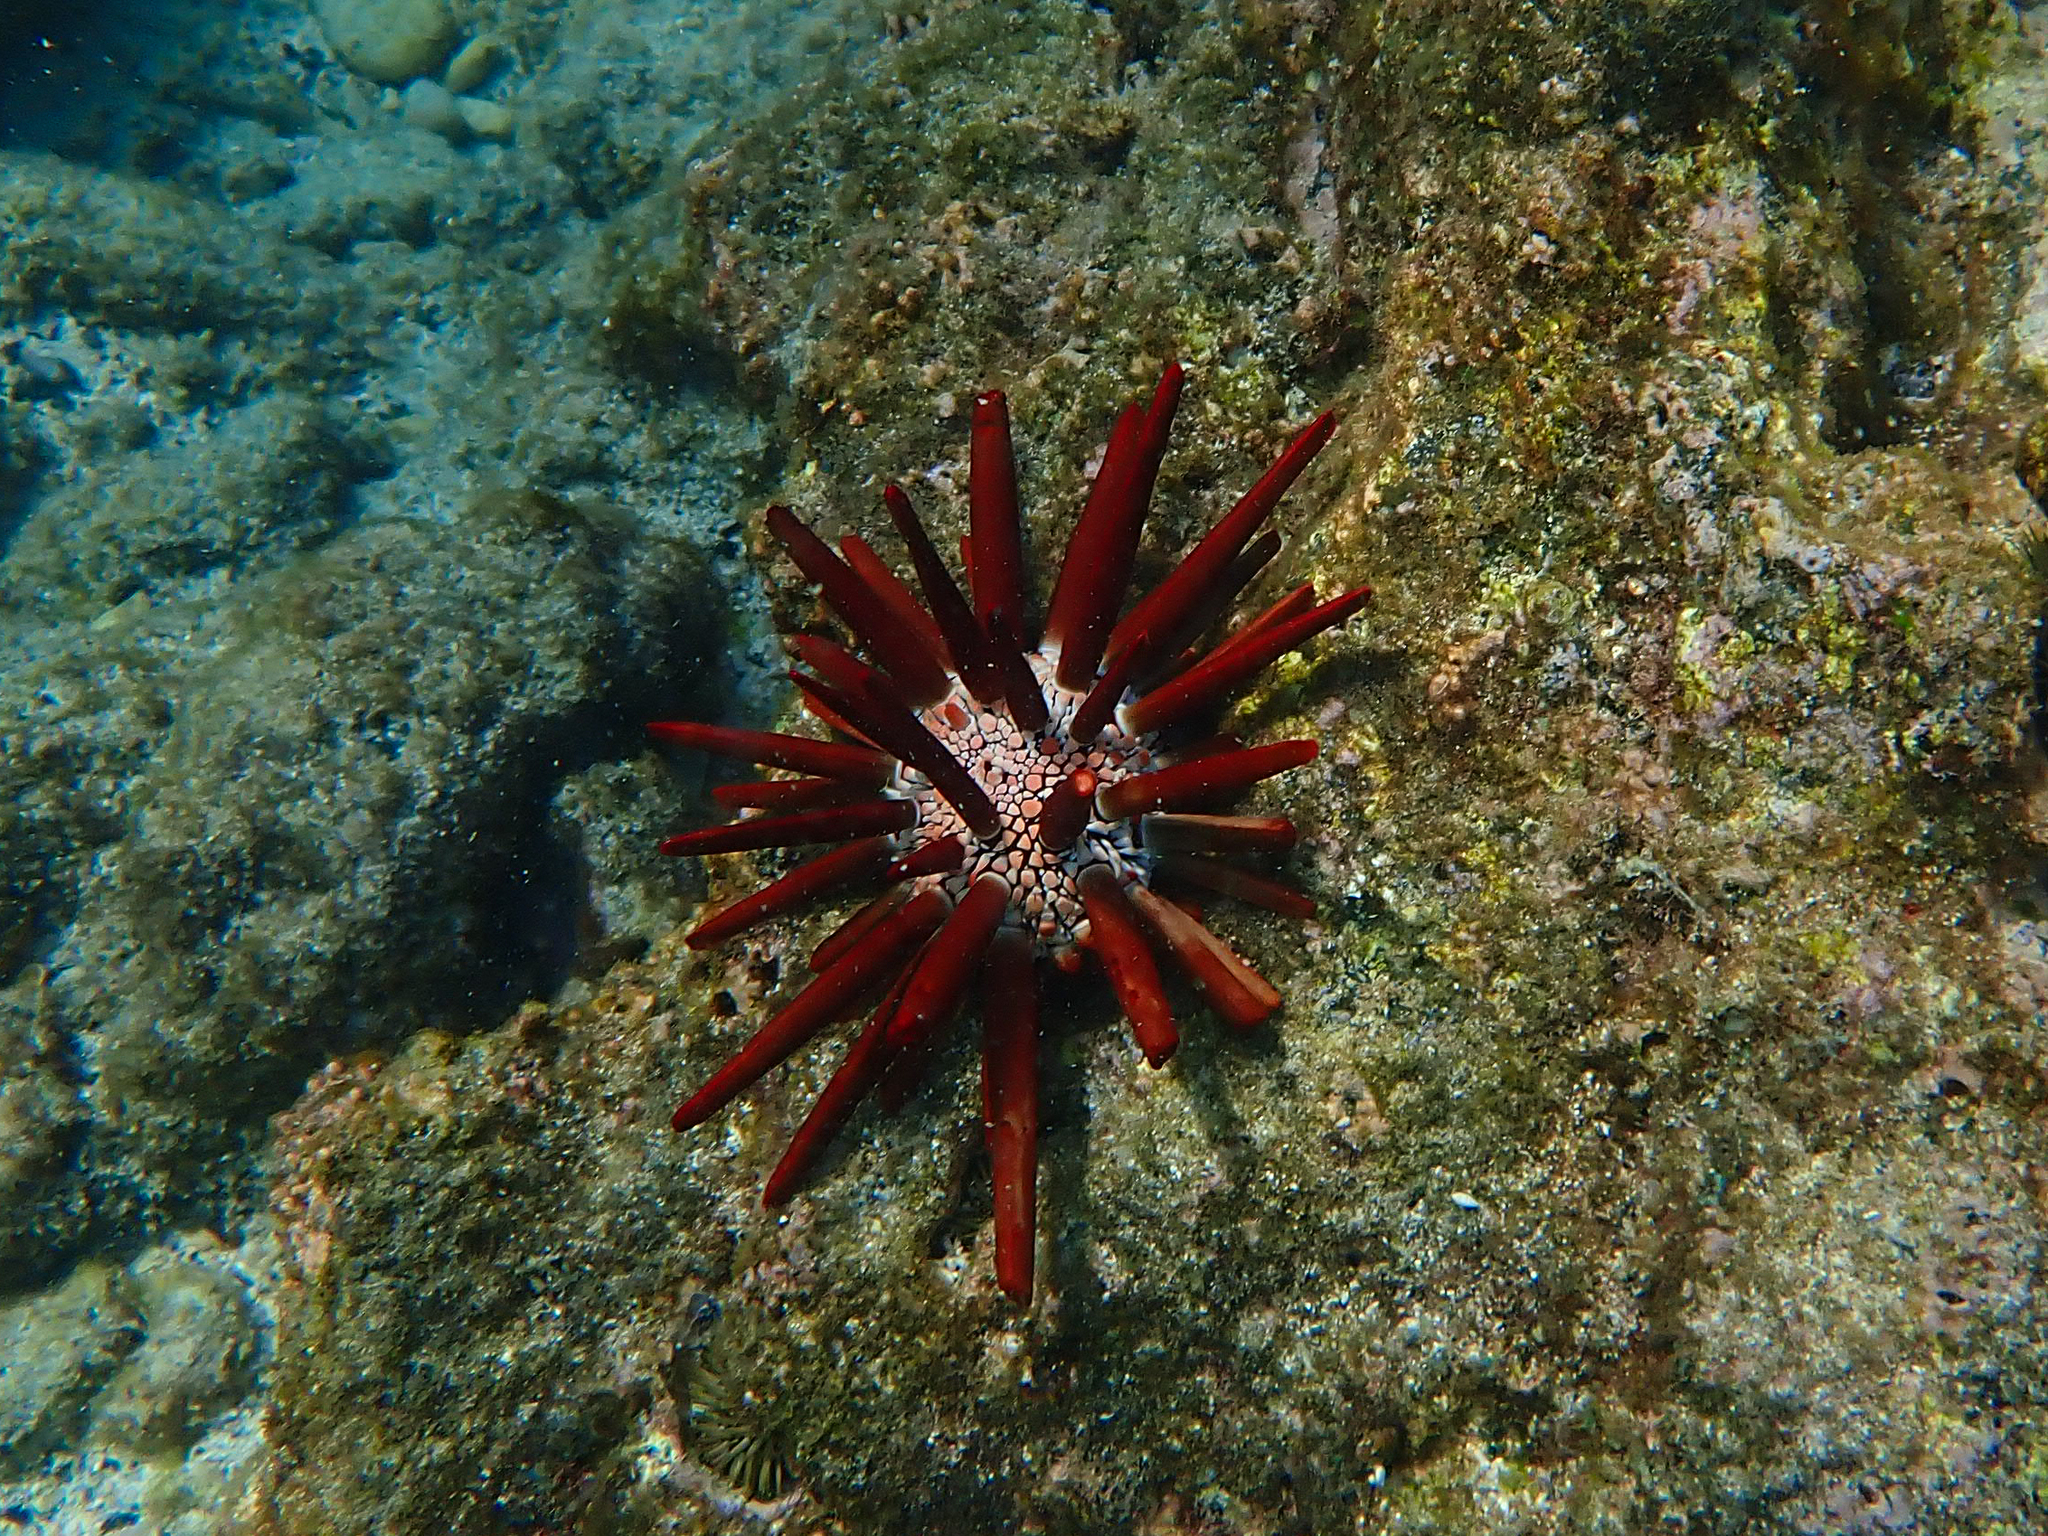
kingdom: Animalia
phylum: Echinodermata
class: Echinoidea
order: Camarodonta
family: Echinometridae
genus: Heterocentrotus
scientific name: Heterocentrotus mamillatus
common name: Slate pencil urchin
